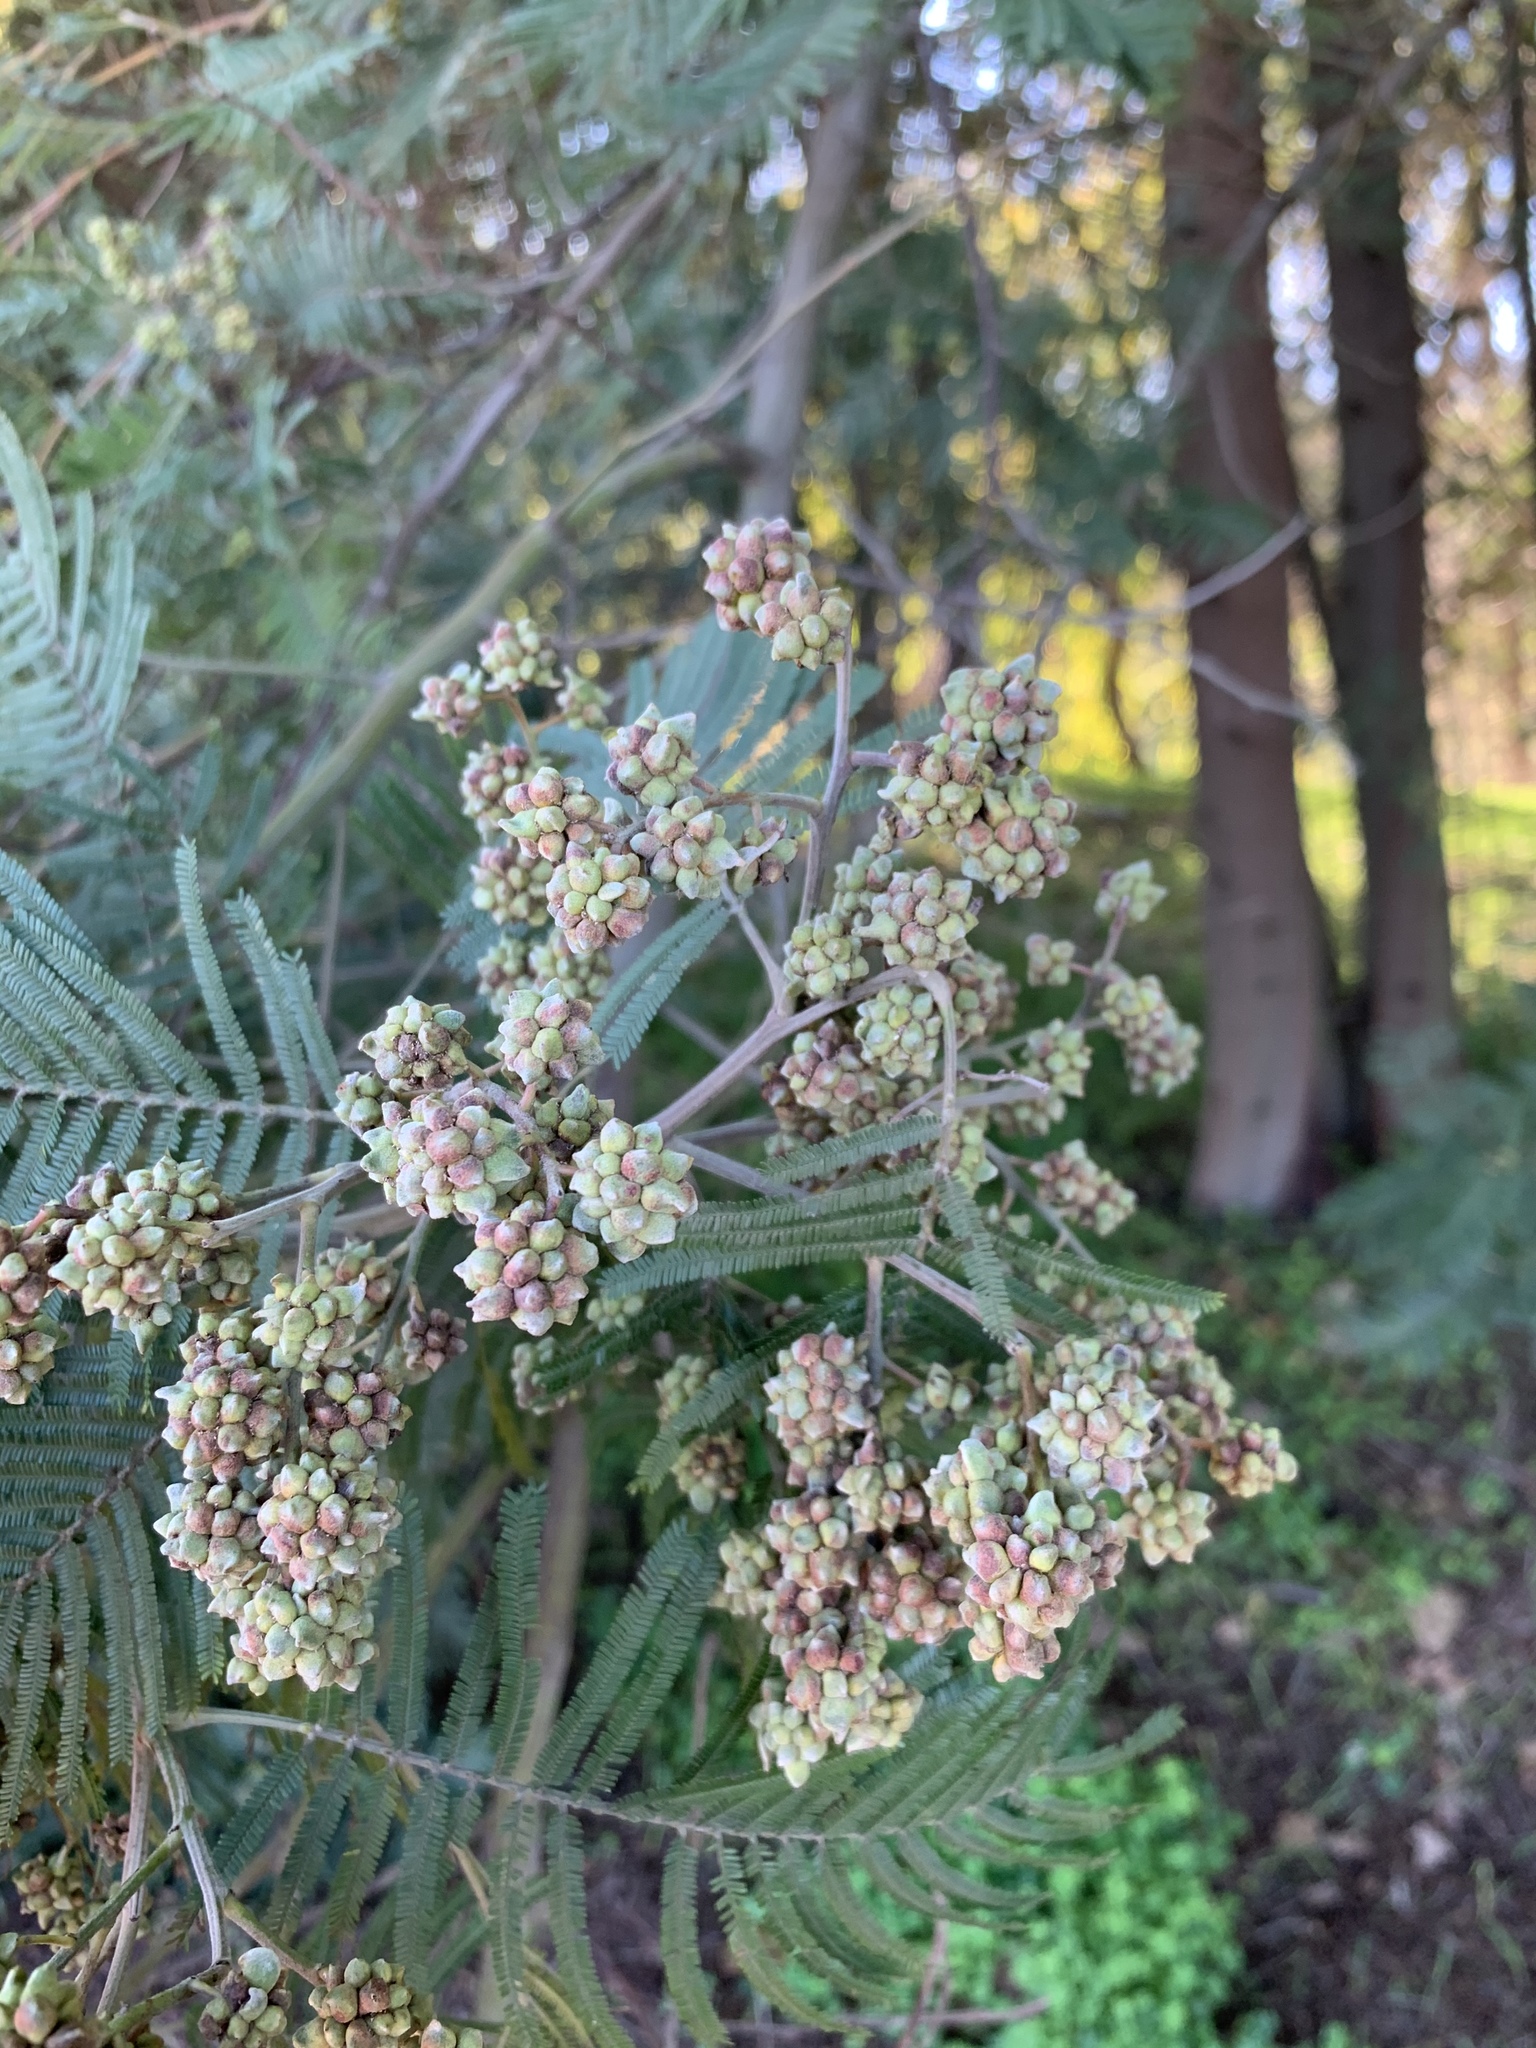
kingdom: Animalia
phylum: Arthropoda
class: Insecta
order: Diptera
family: Cecidomyiidae
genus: Dasineura
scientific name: Dasineura rubiformis
